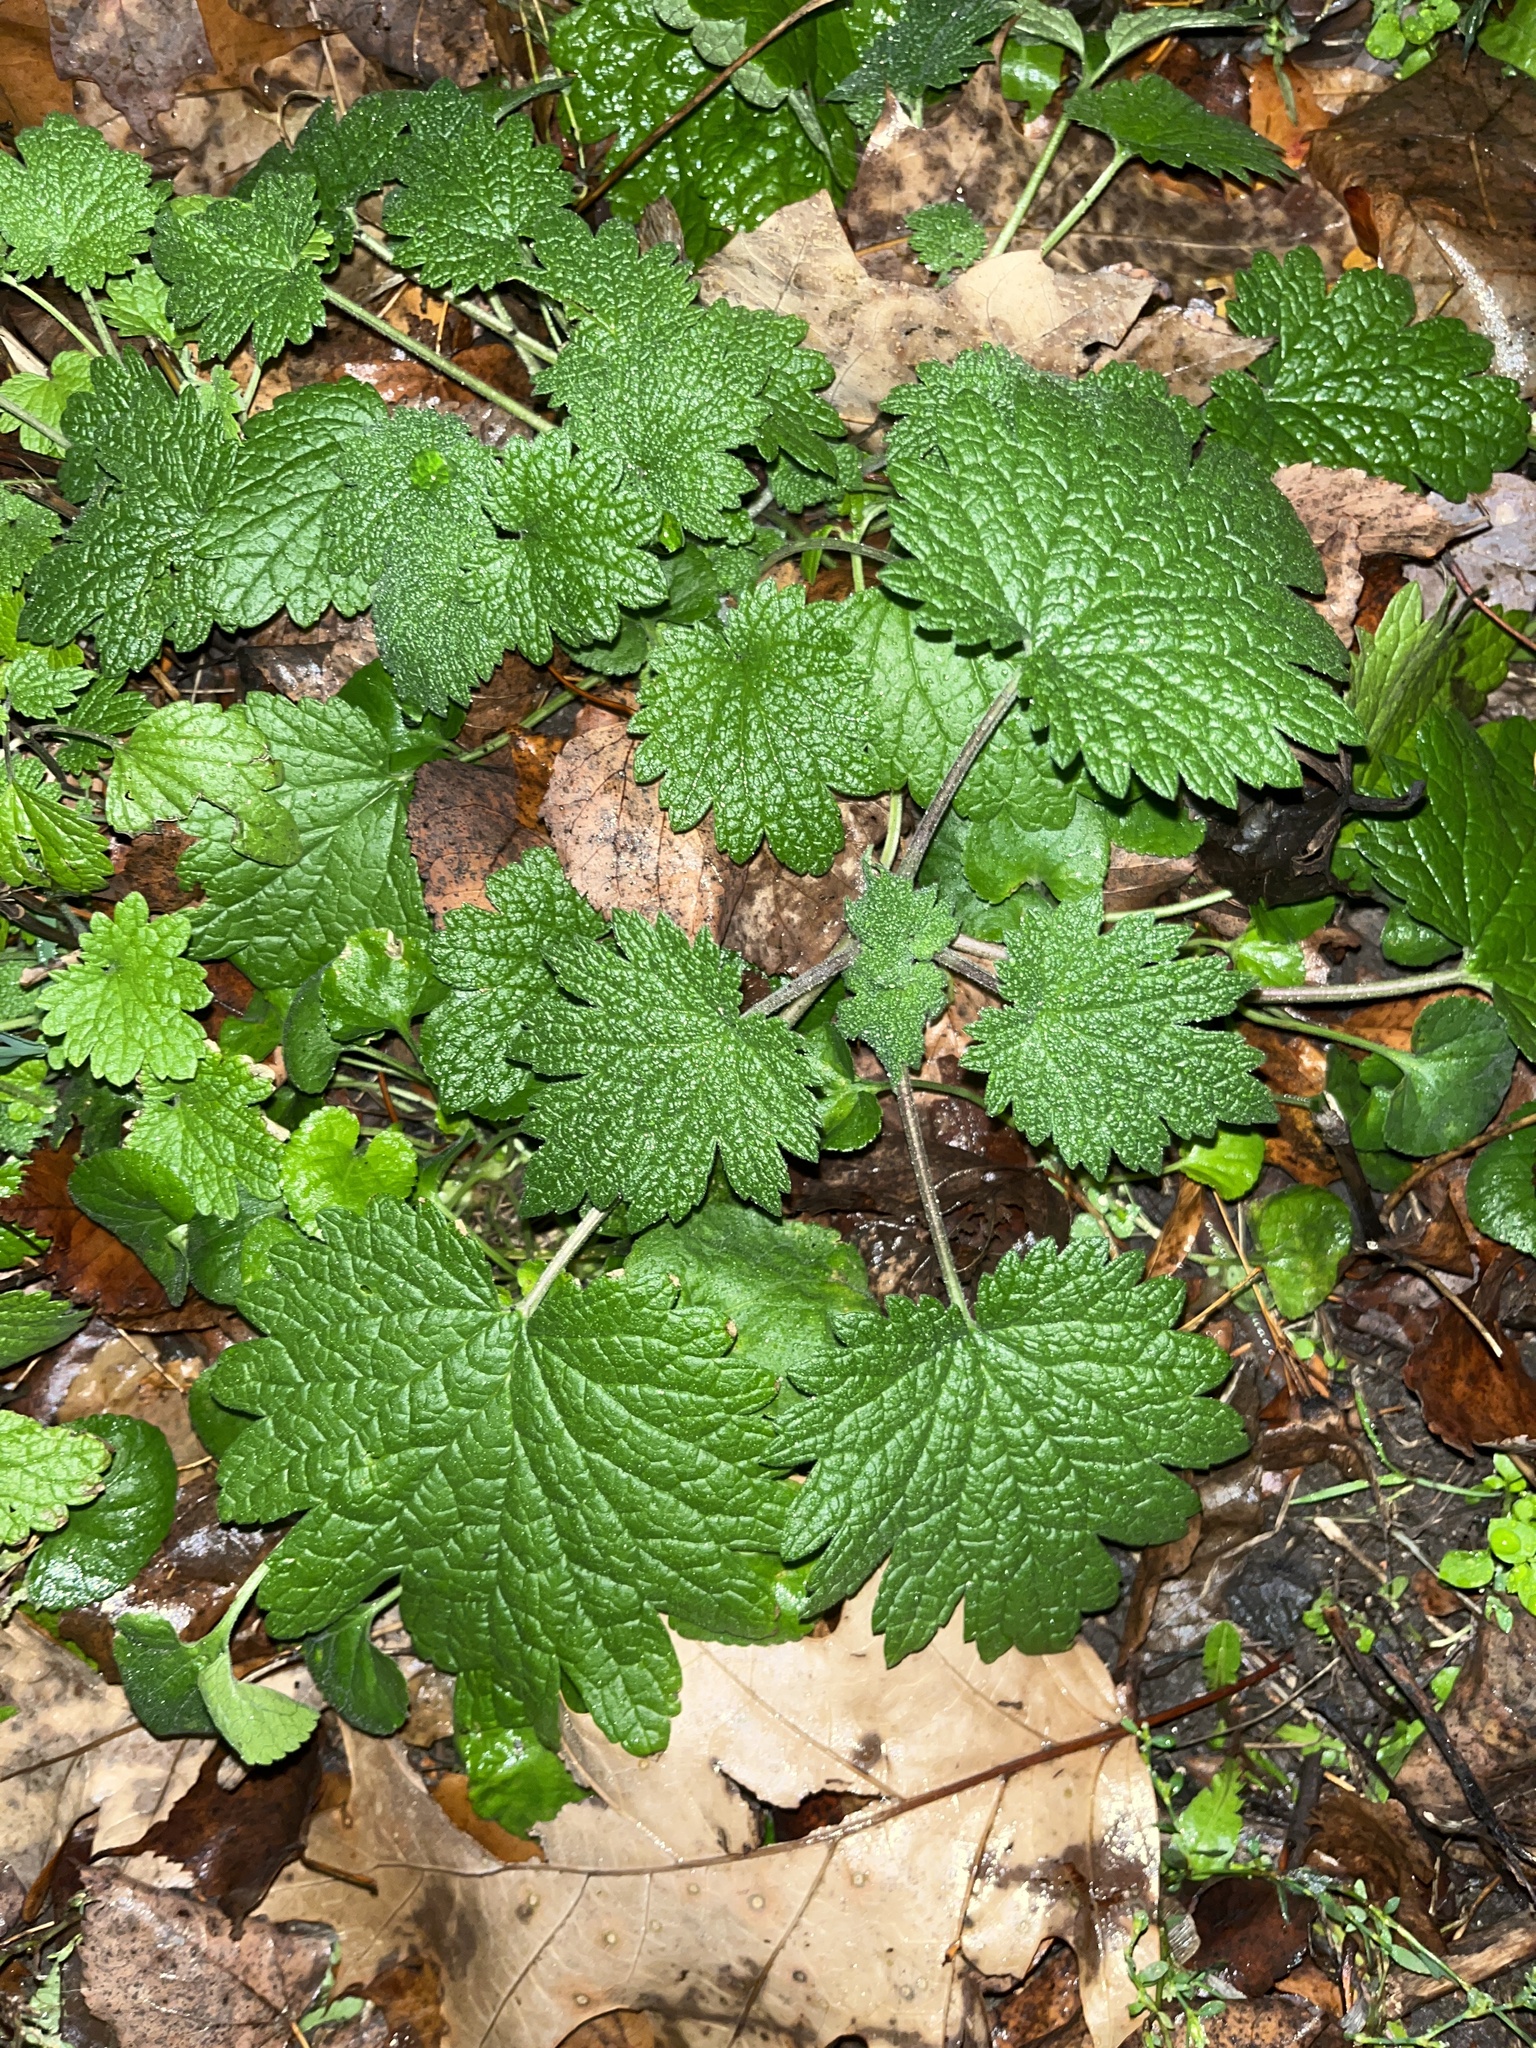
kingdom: Plantae
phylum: Tracheophyta
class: Magnoliopsida
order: Lamiales
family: Lamiaceae
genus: Leonurus
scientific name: Leonurus cardiaca
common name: Motherwort
